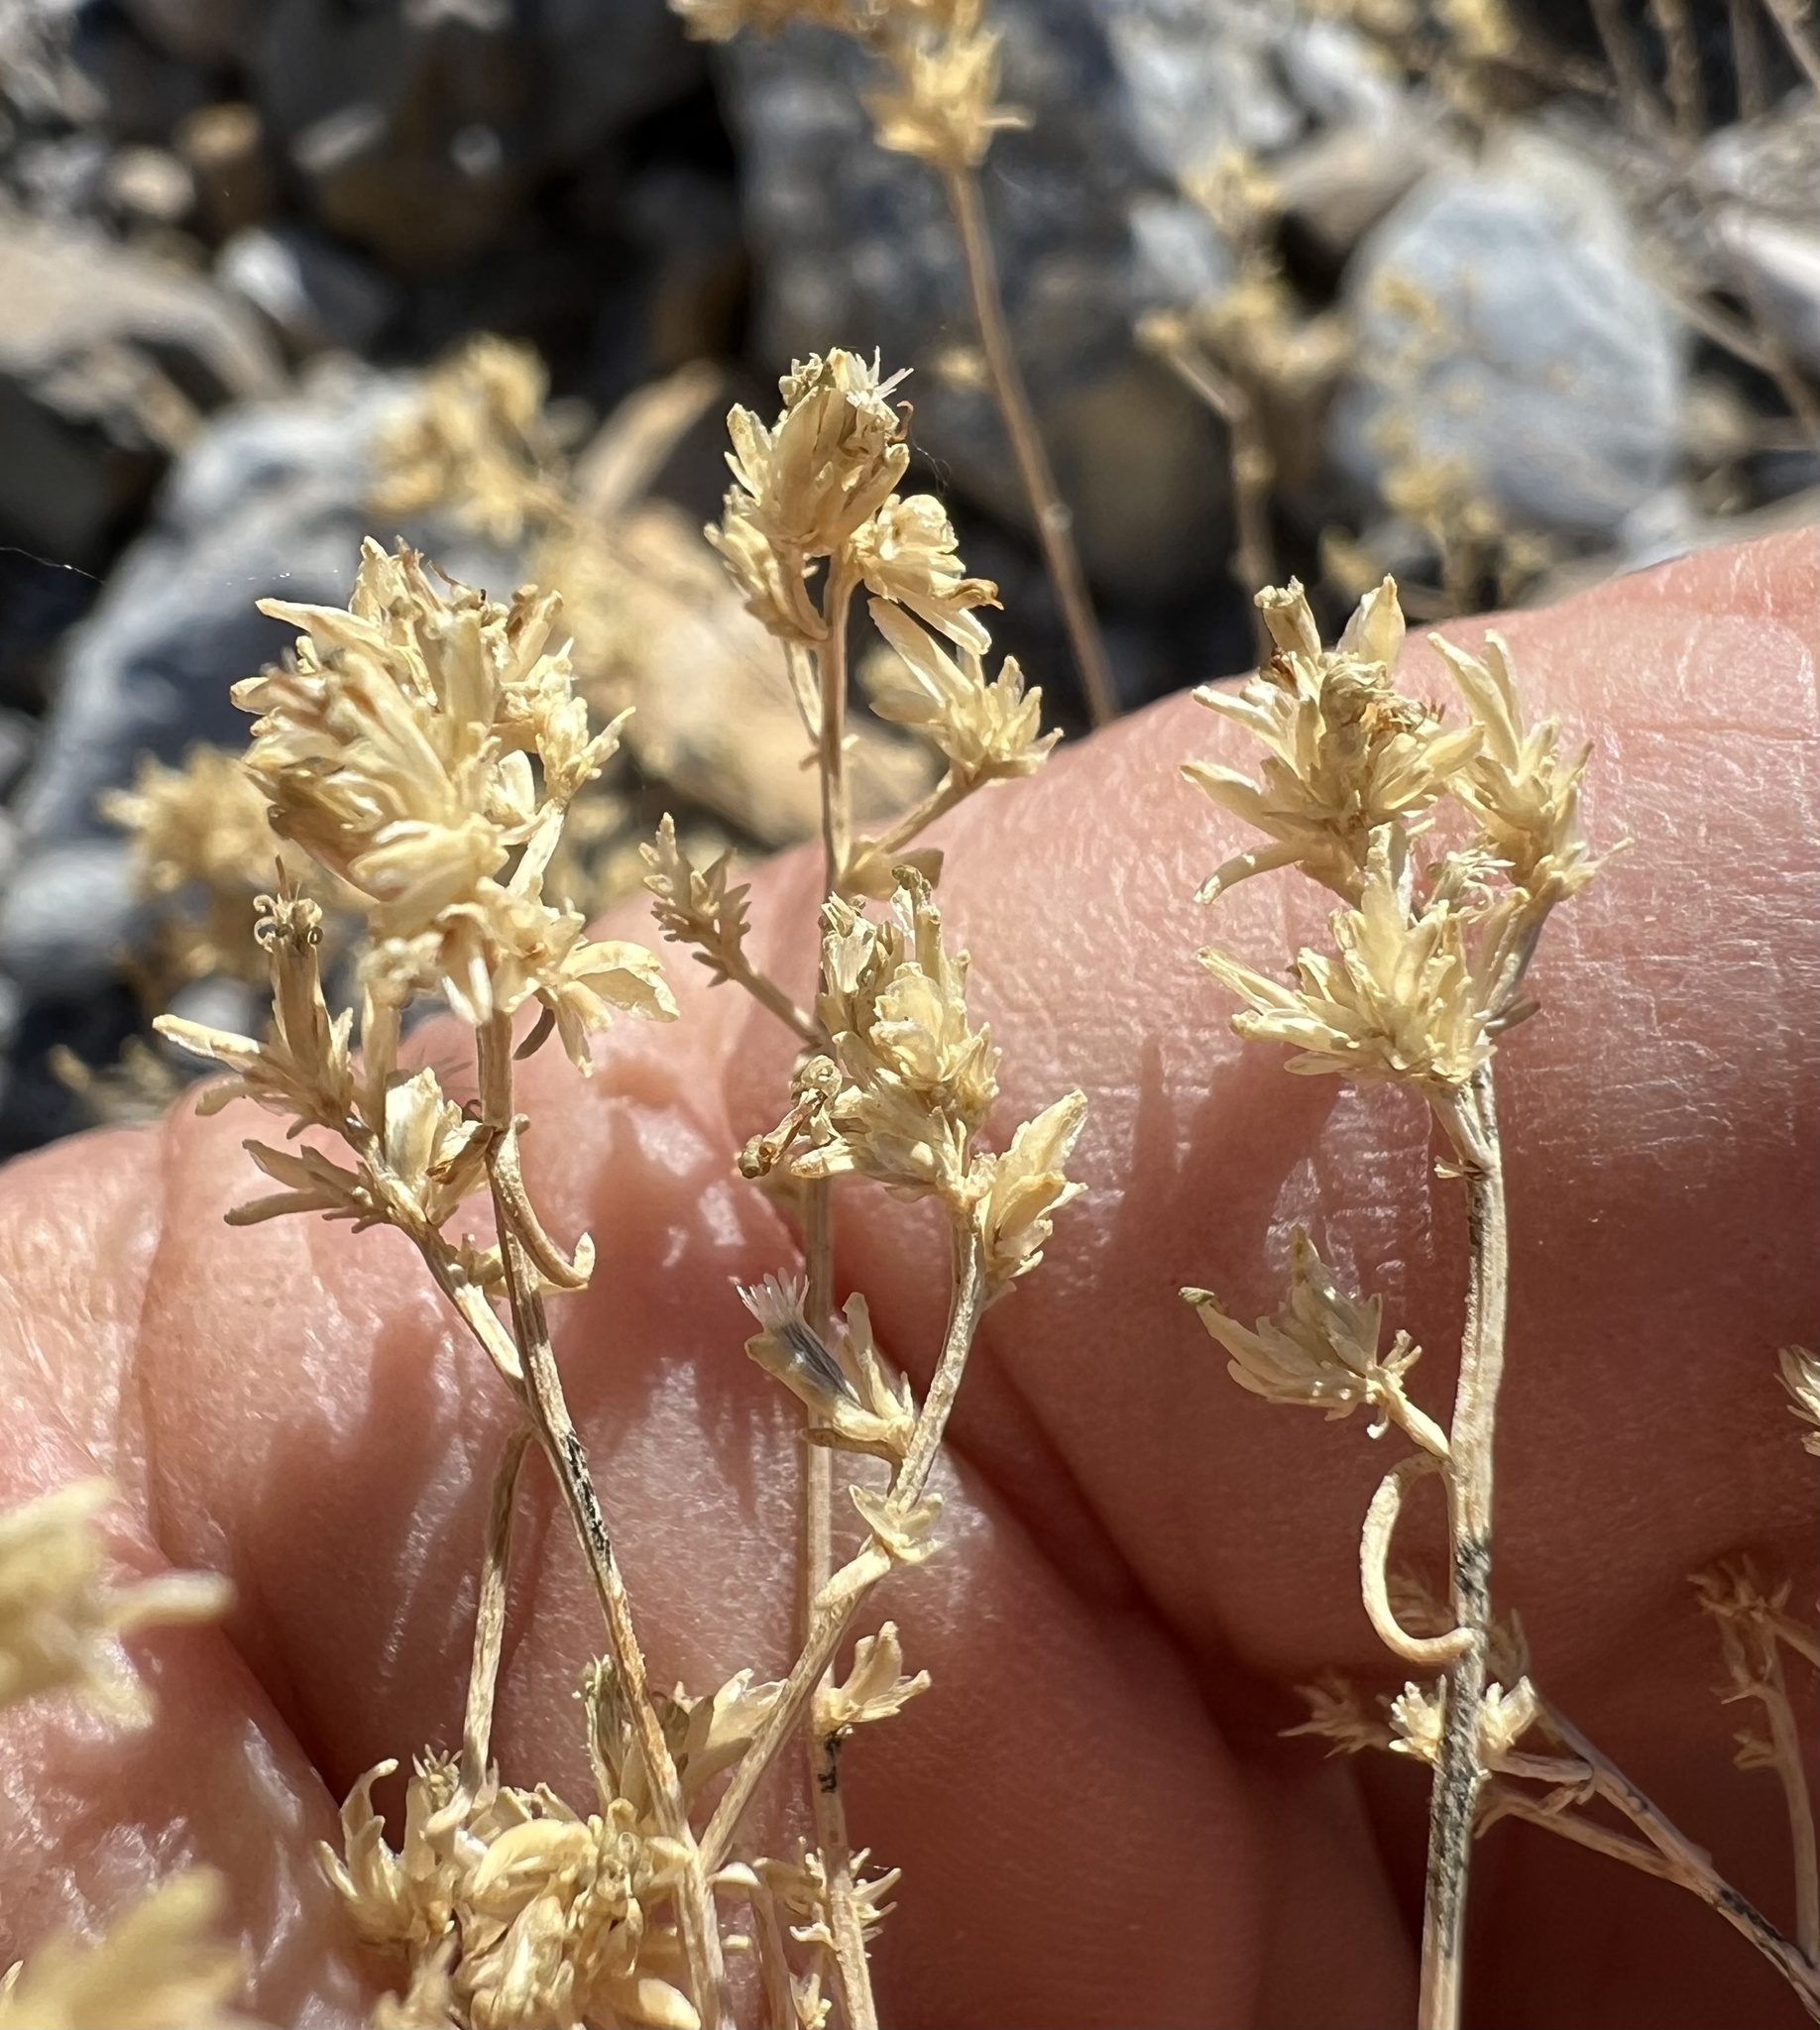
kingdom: Plantae
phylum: Tracheophyta
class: Magnoliopsida
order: Asterales
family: Asteraceae
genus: Gutierrezia
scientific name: Gutierrezia microcephala
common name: Thread snakeweed
